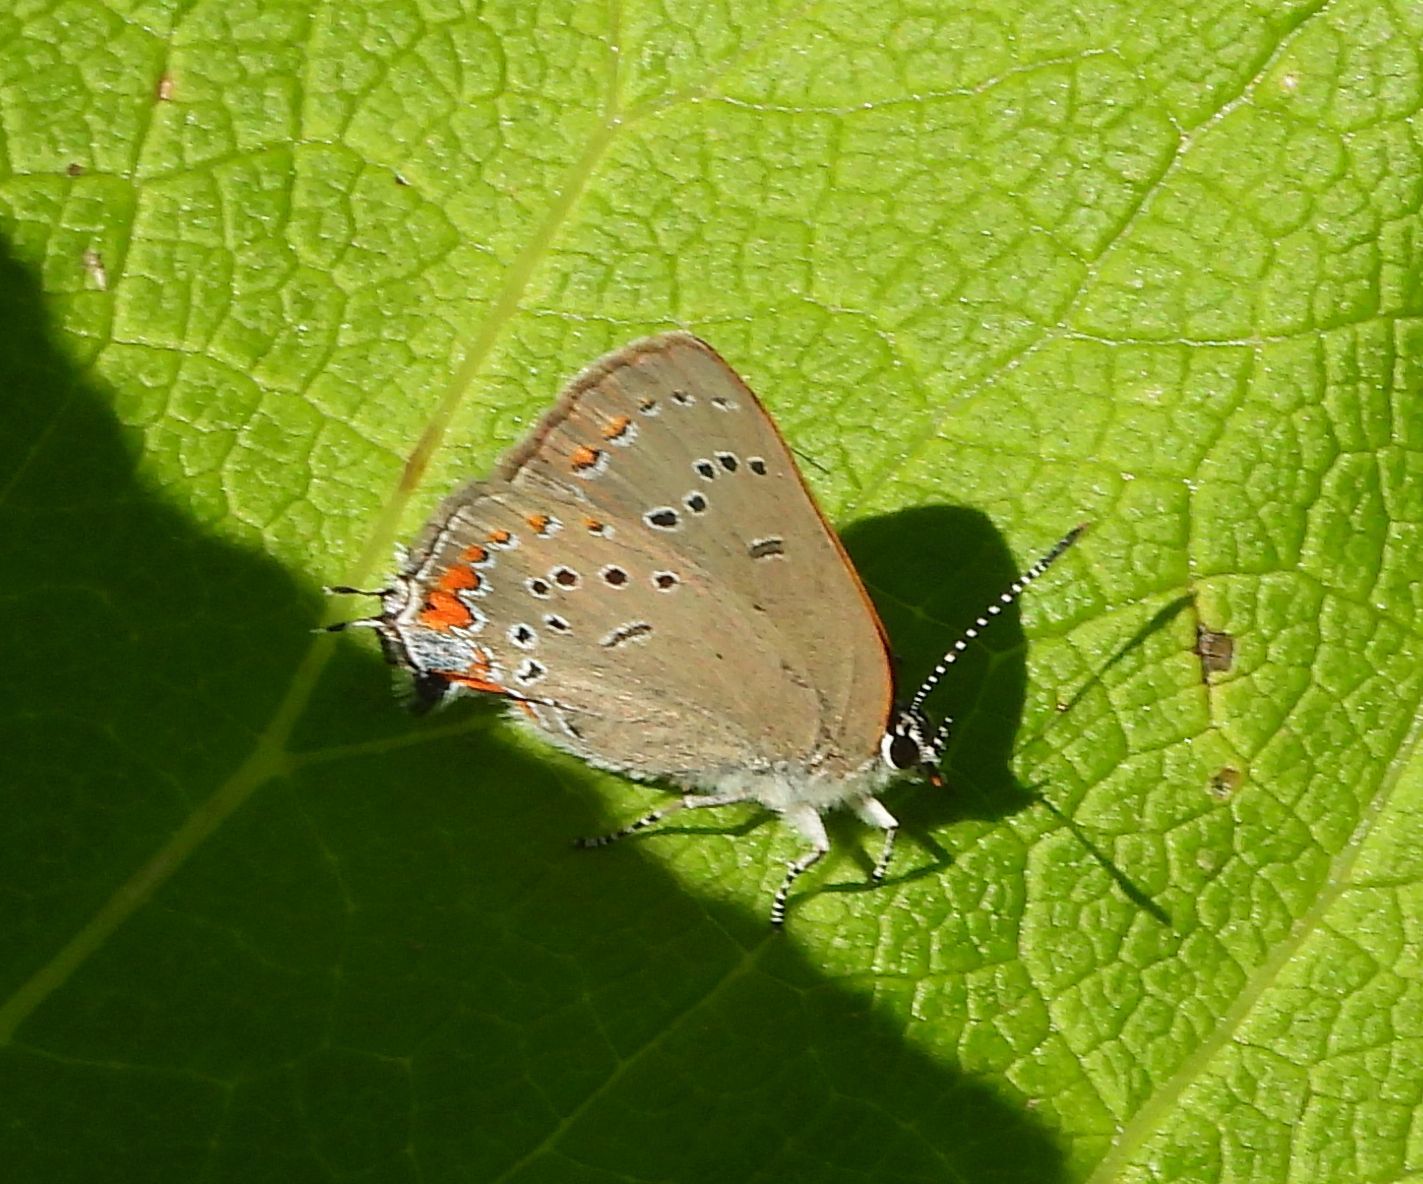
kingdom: Animalia
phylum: Arthropoda
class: Insecta
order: Lepidoptera
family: Lycaenidae
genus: Strymon
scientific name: Strymon acadica
